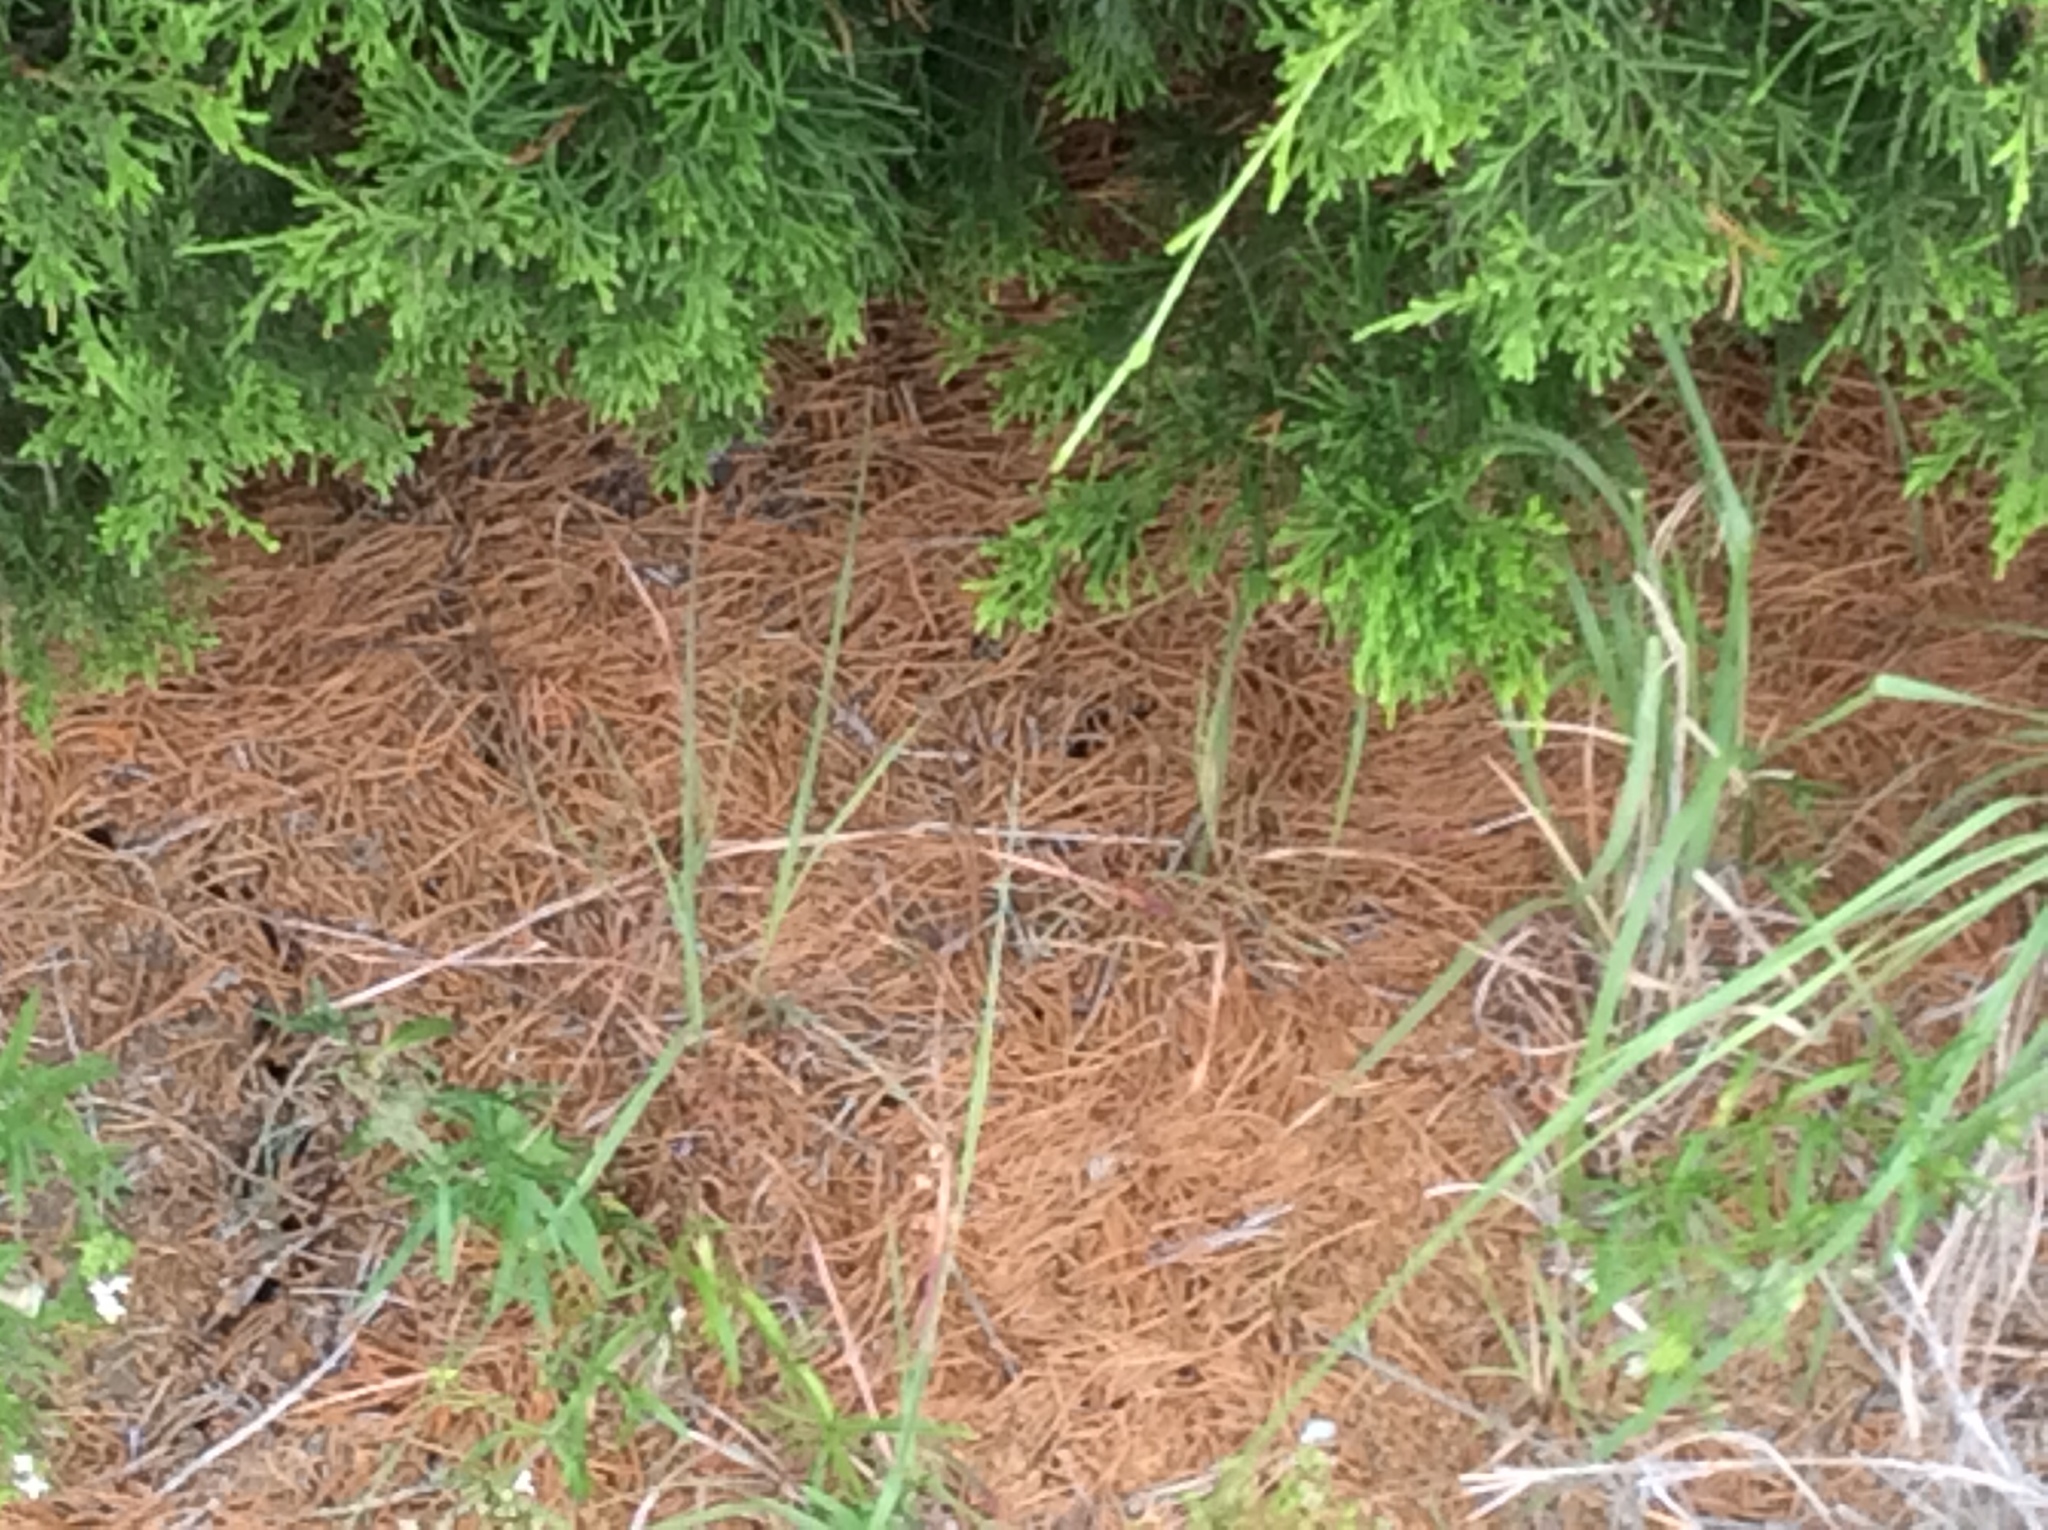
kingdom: Plantae
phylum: Tracheophyta
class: Pinopsida
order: Pinales
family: Cupressaceae
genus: Juniperus
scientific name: Juniperus ashei
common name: Mexican juniper
